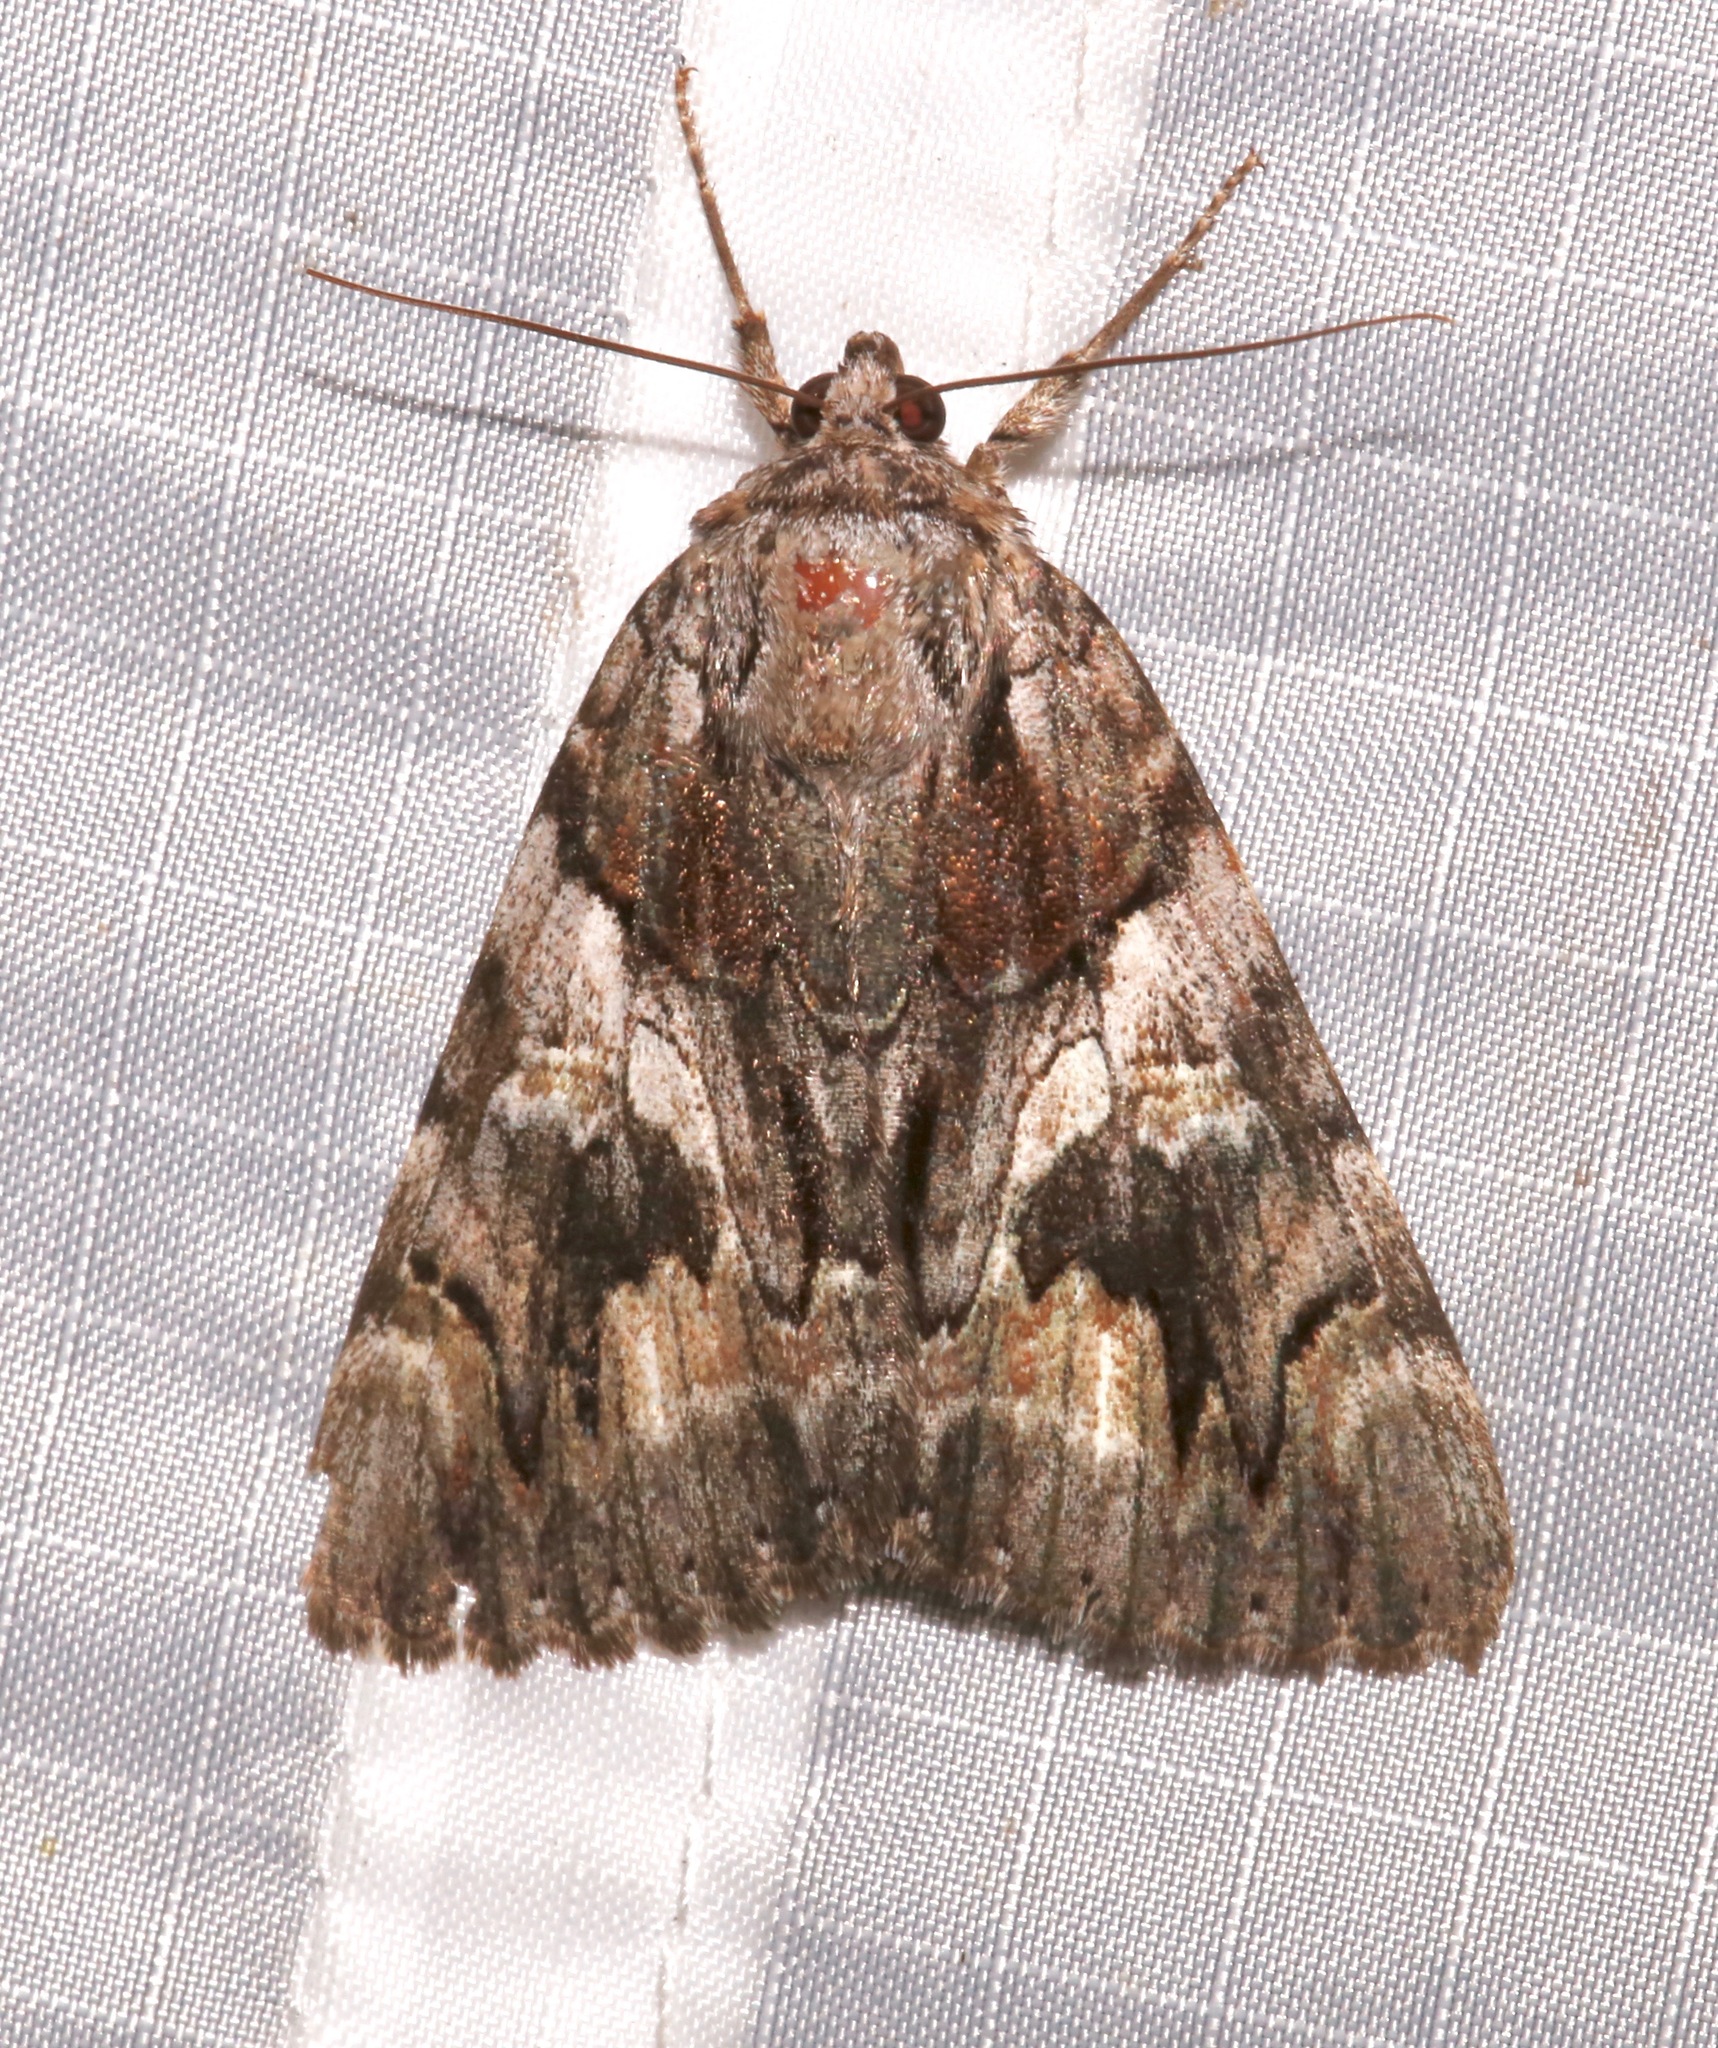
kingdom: Animalia
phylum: Arthropoda
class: Insecta
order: Lepidoptera
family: Erebidae
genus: Catocala
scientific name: Catocala violenta
